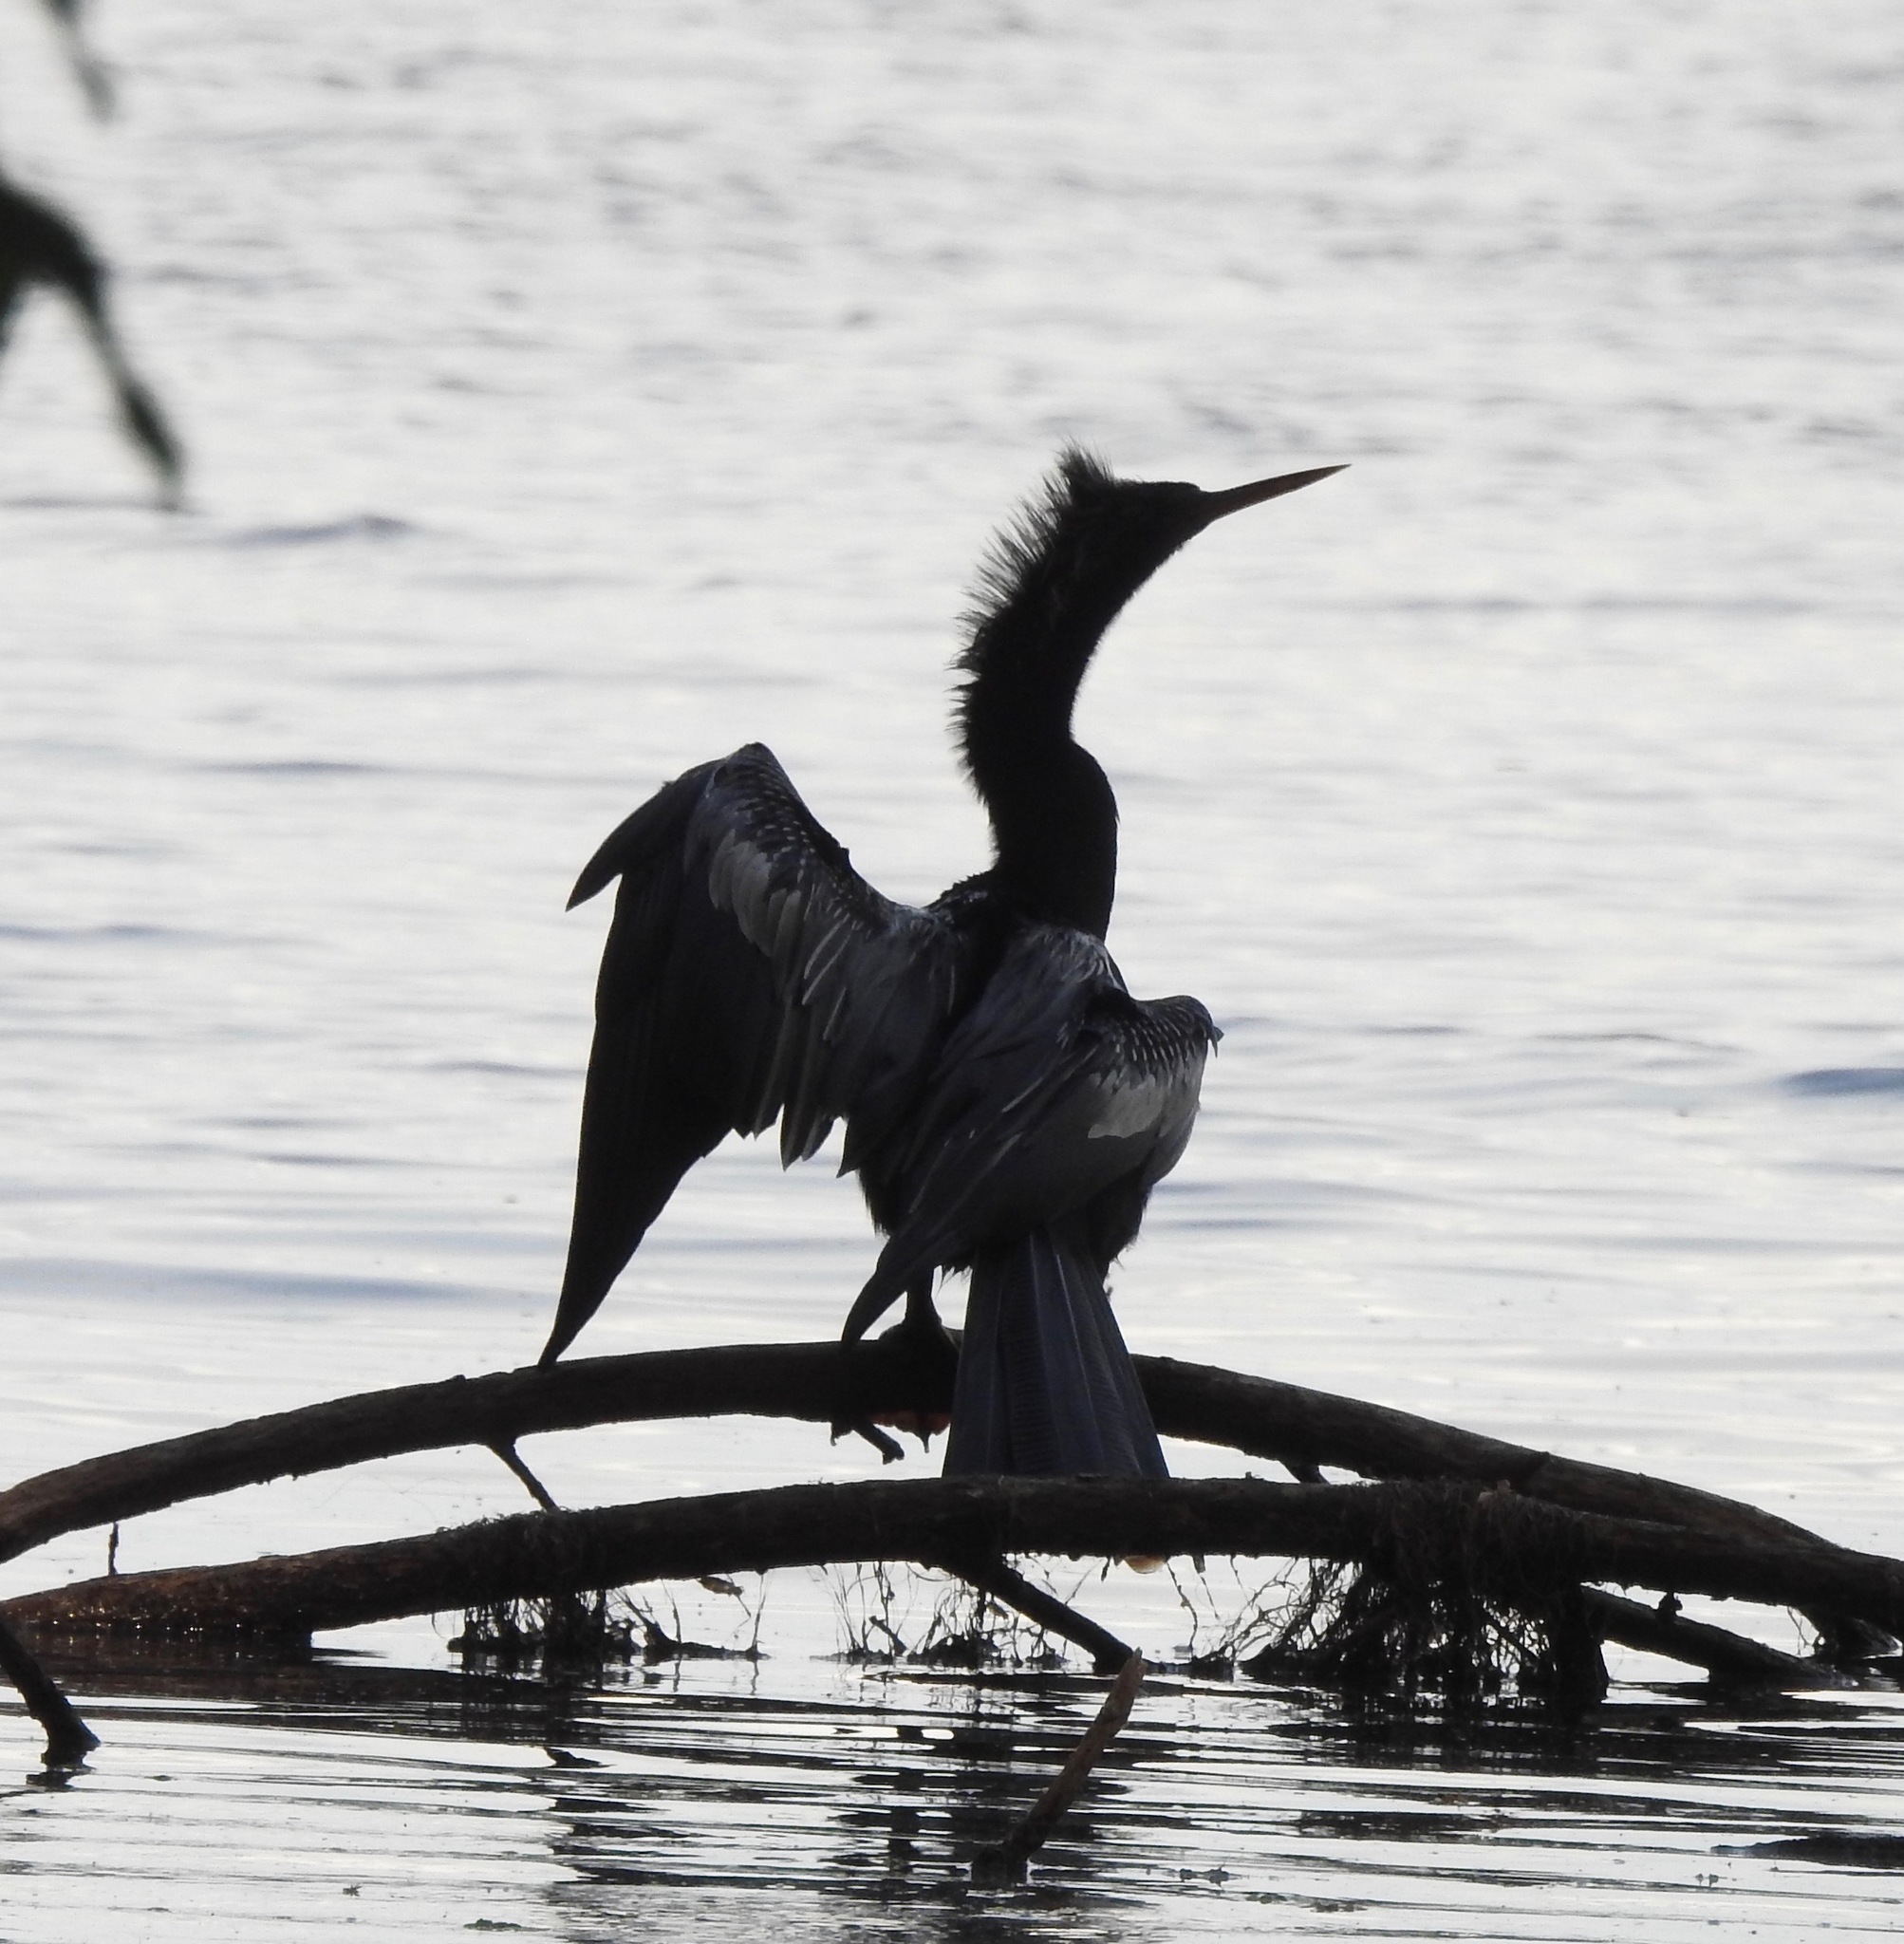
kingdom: Animalia
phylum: Chordata
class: Aves
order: Suliformes
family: Anhingidae
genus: Anhinga
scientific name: Anhinga anhinga
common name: Anhinga
